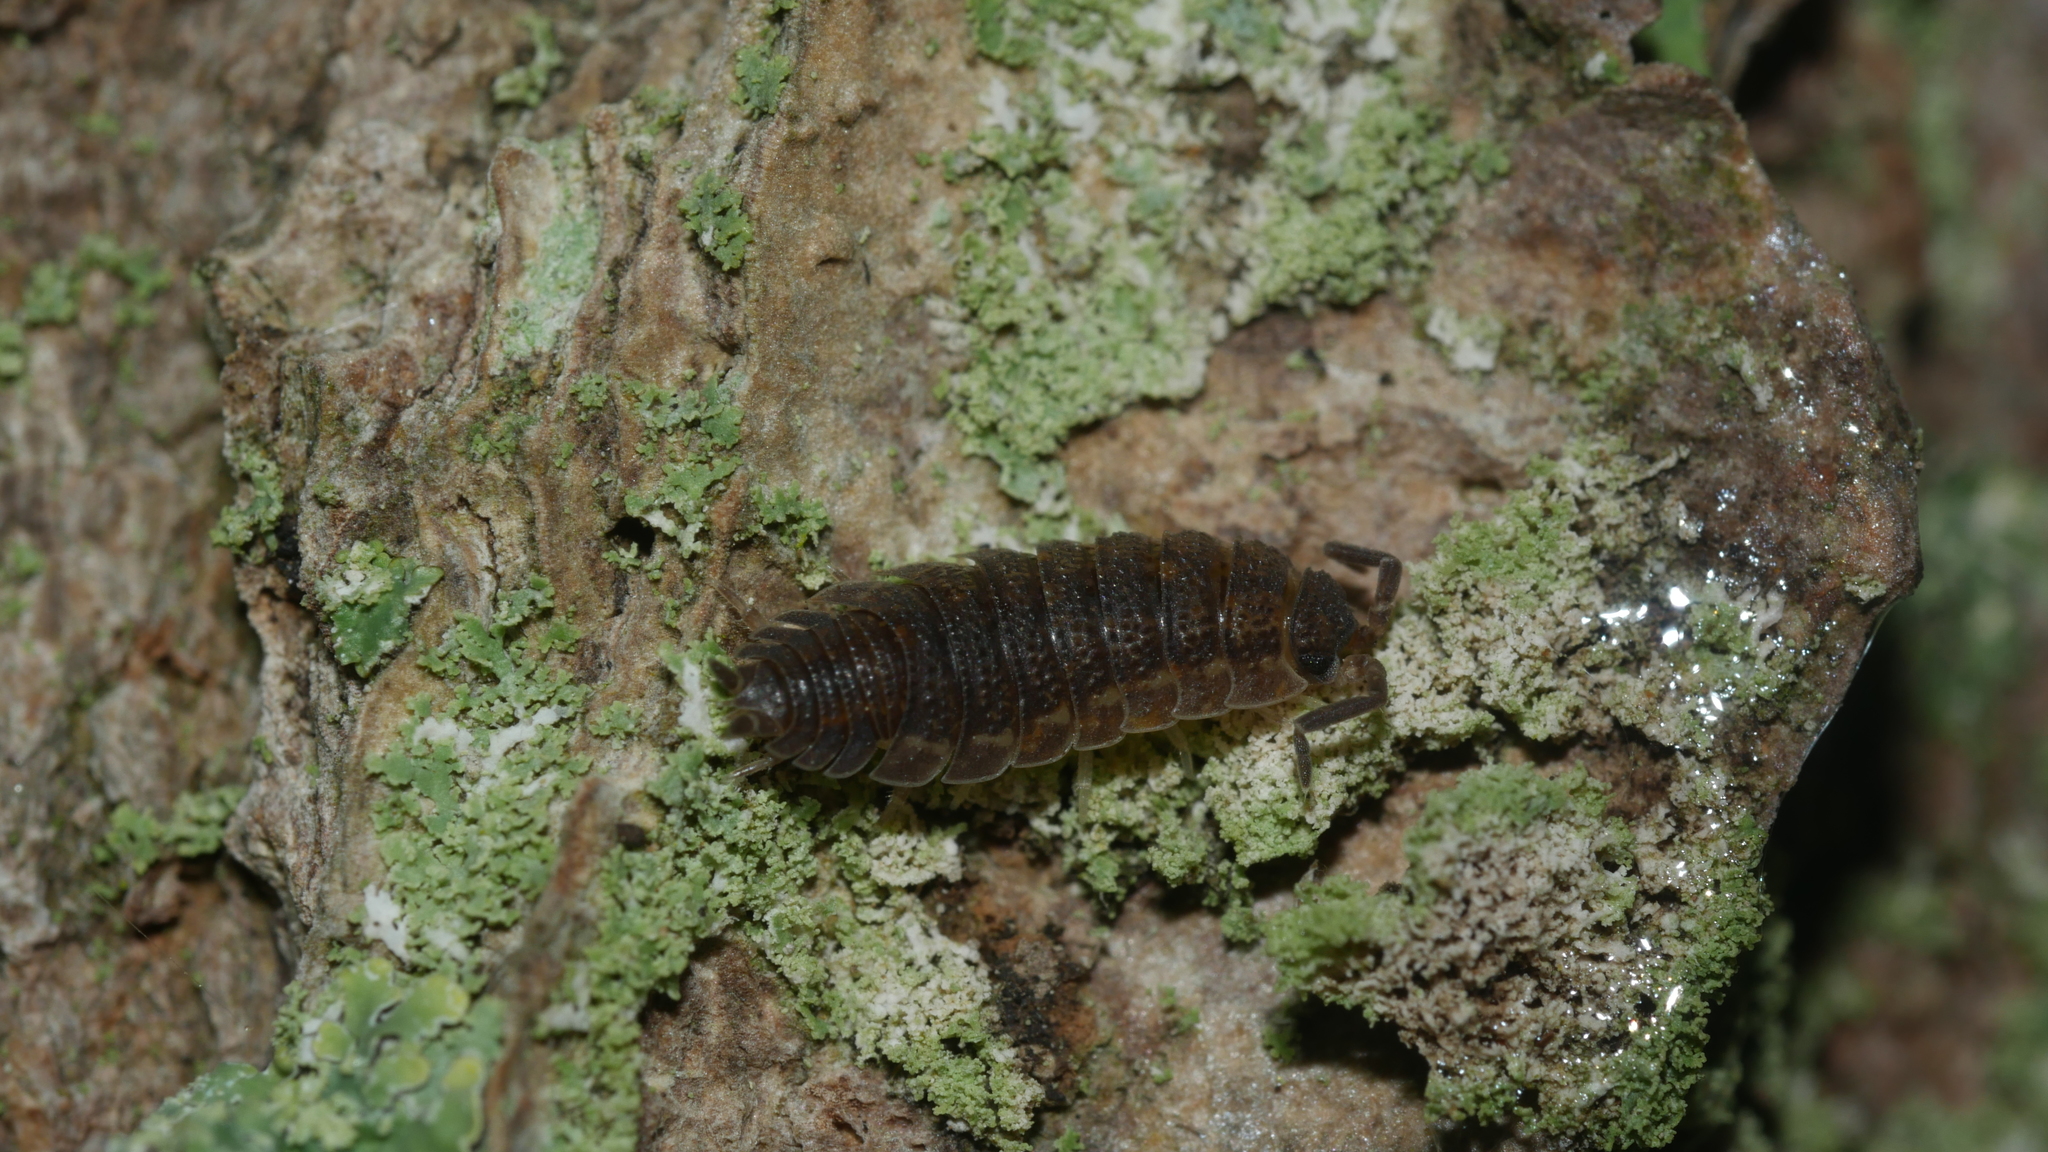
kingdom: Animalia
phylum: Arthropoda
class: Malacostraca
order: Isopoda
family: Porcellionidae
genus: Porcellio
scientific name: Porcellio scaber
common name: Common rough woodlouse
